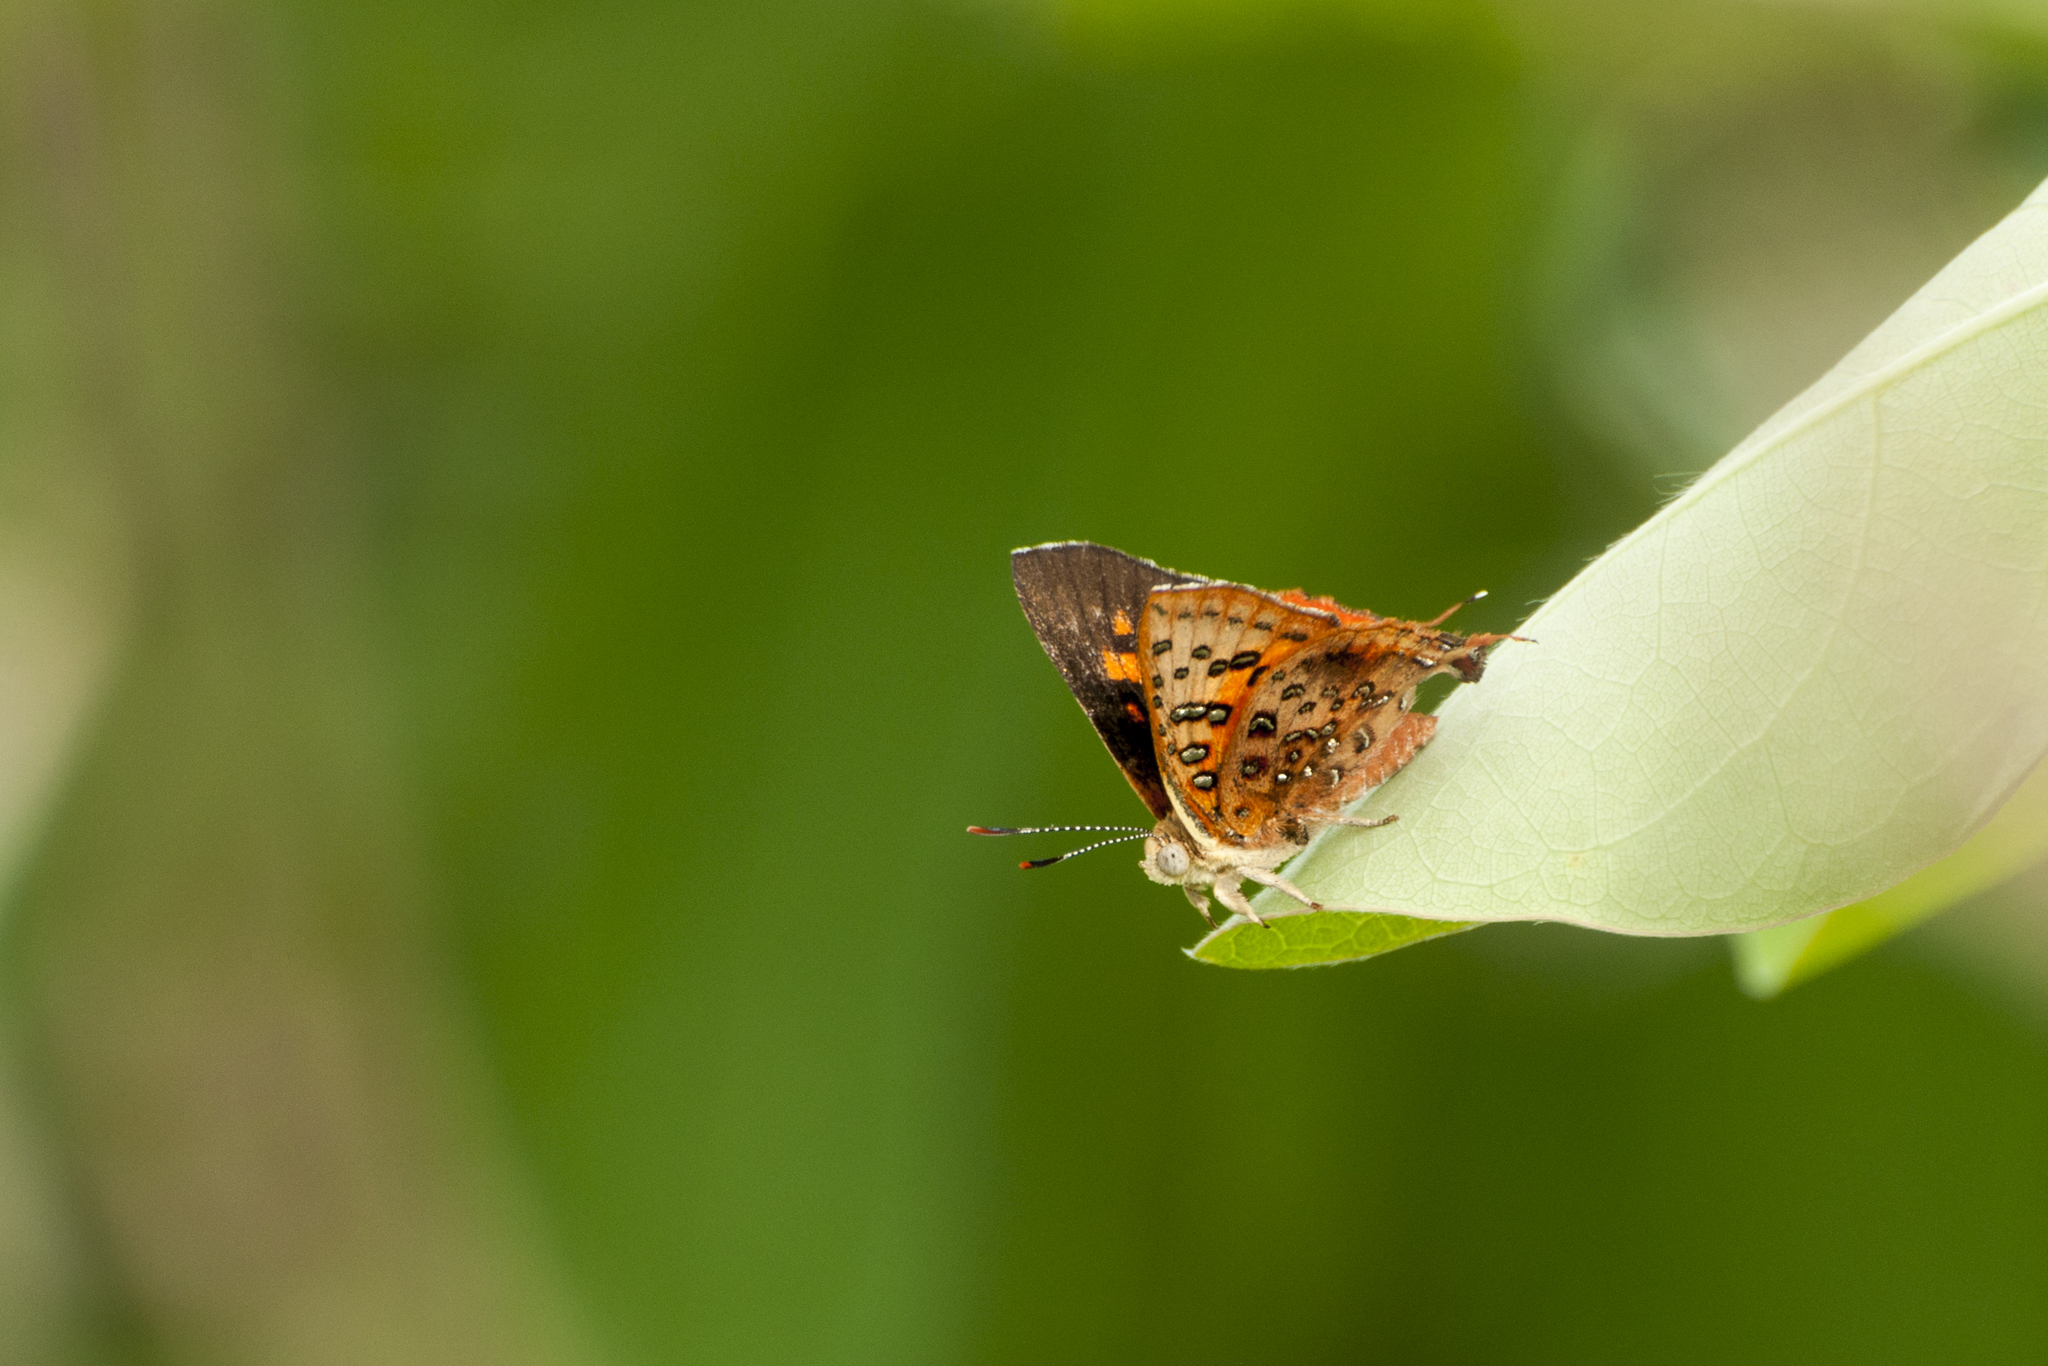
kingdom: Animalia
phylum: Arthropoda
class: Insecta
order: Lepidoptera
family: Lycaenidae
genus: Axiocerses
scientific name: Axiocerses perion
